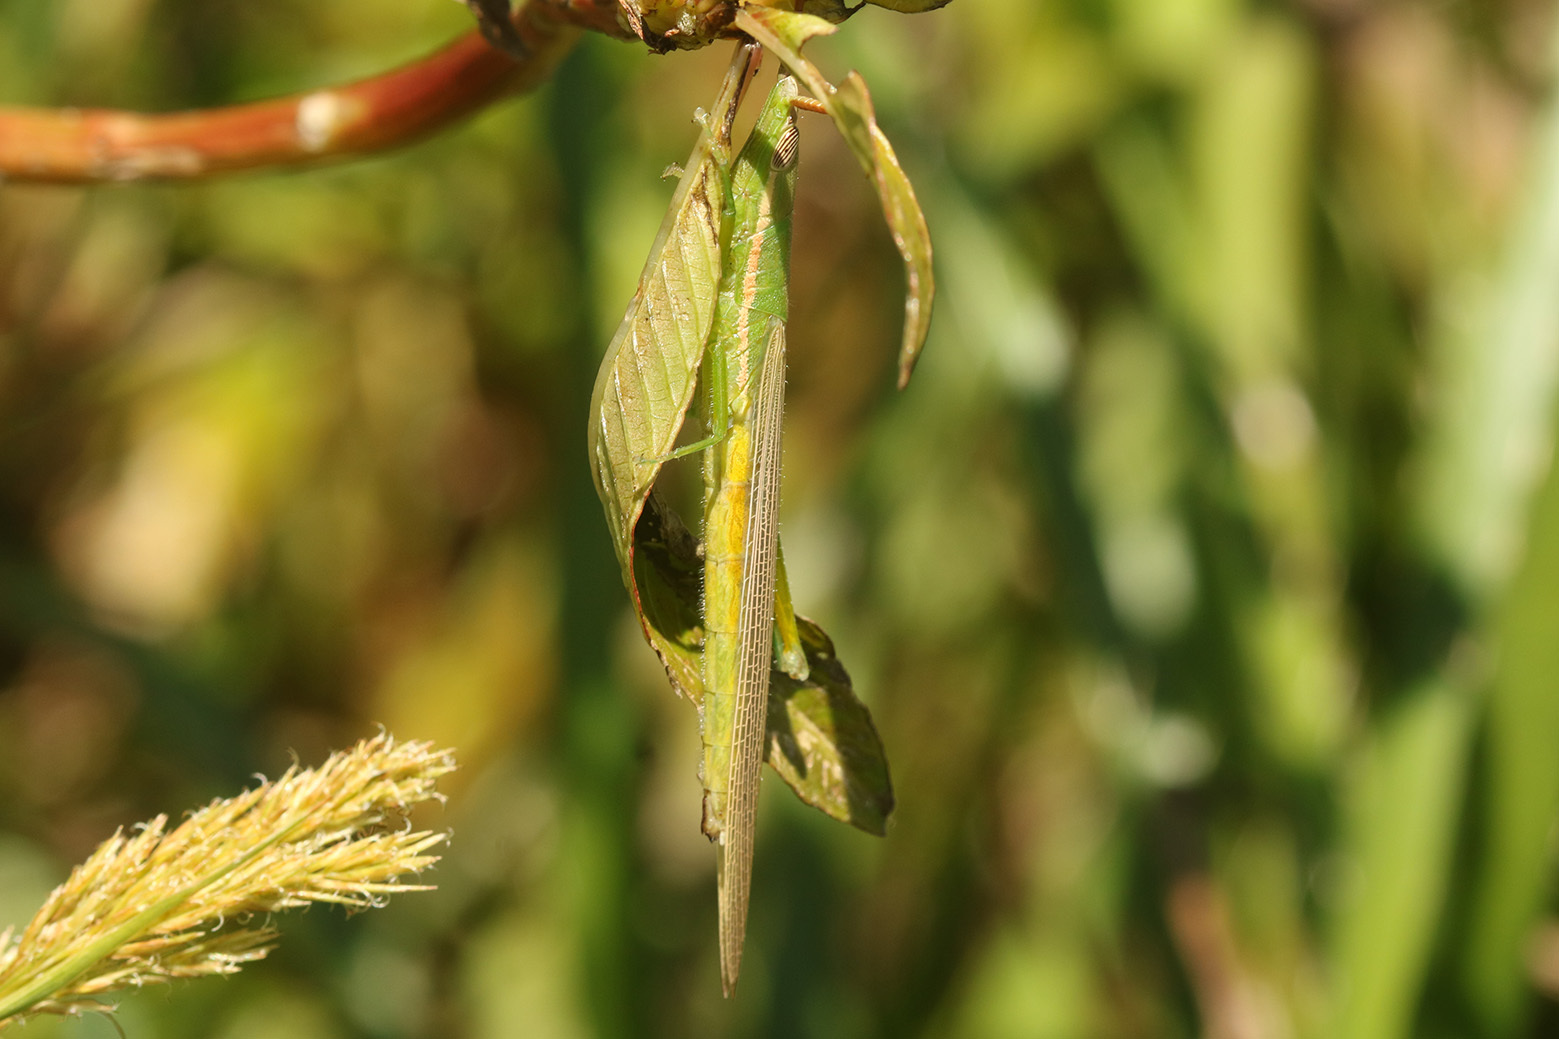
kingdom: Animalia
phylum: Arthropoda
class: Insecta
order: Orthoptera
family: Acrididae
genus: Leptysmina
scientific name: Leptysmina pallida
